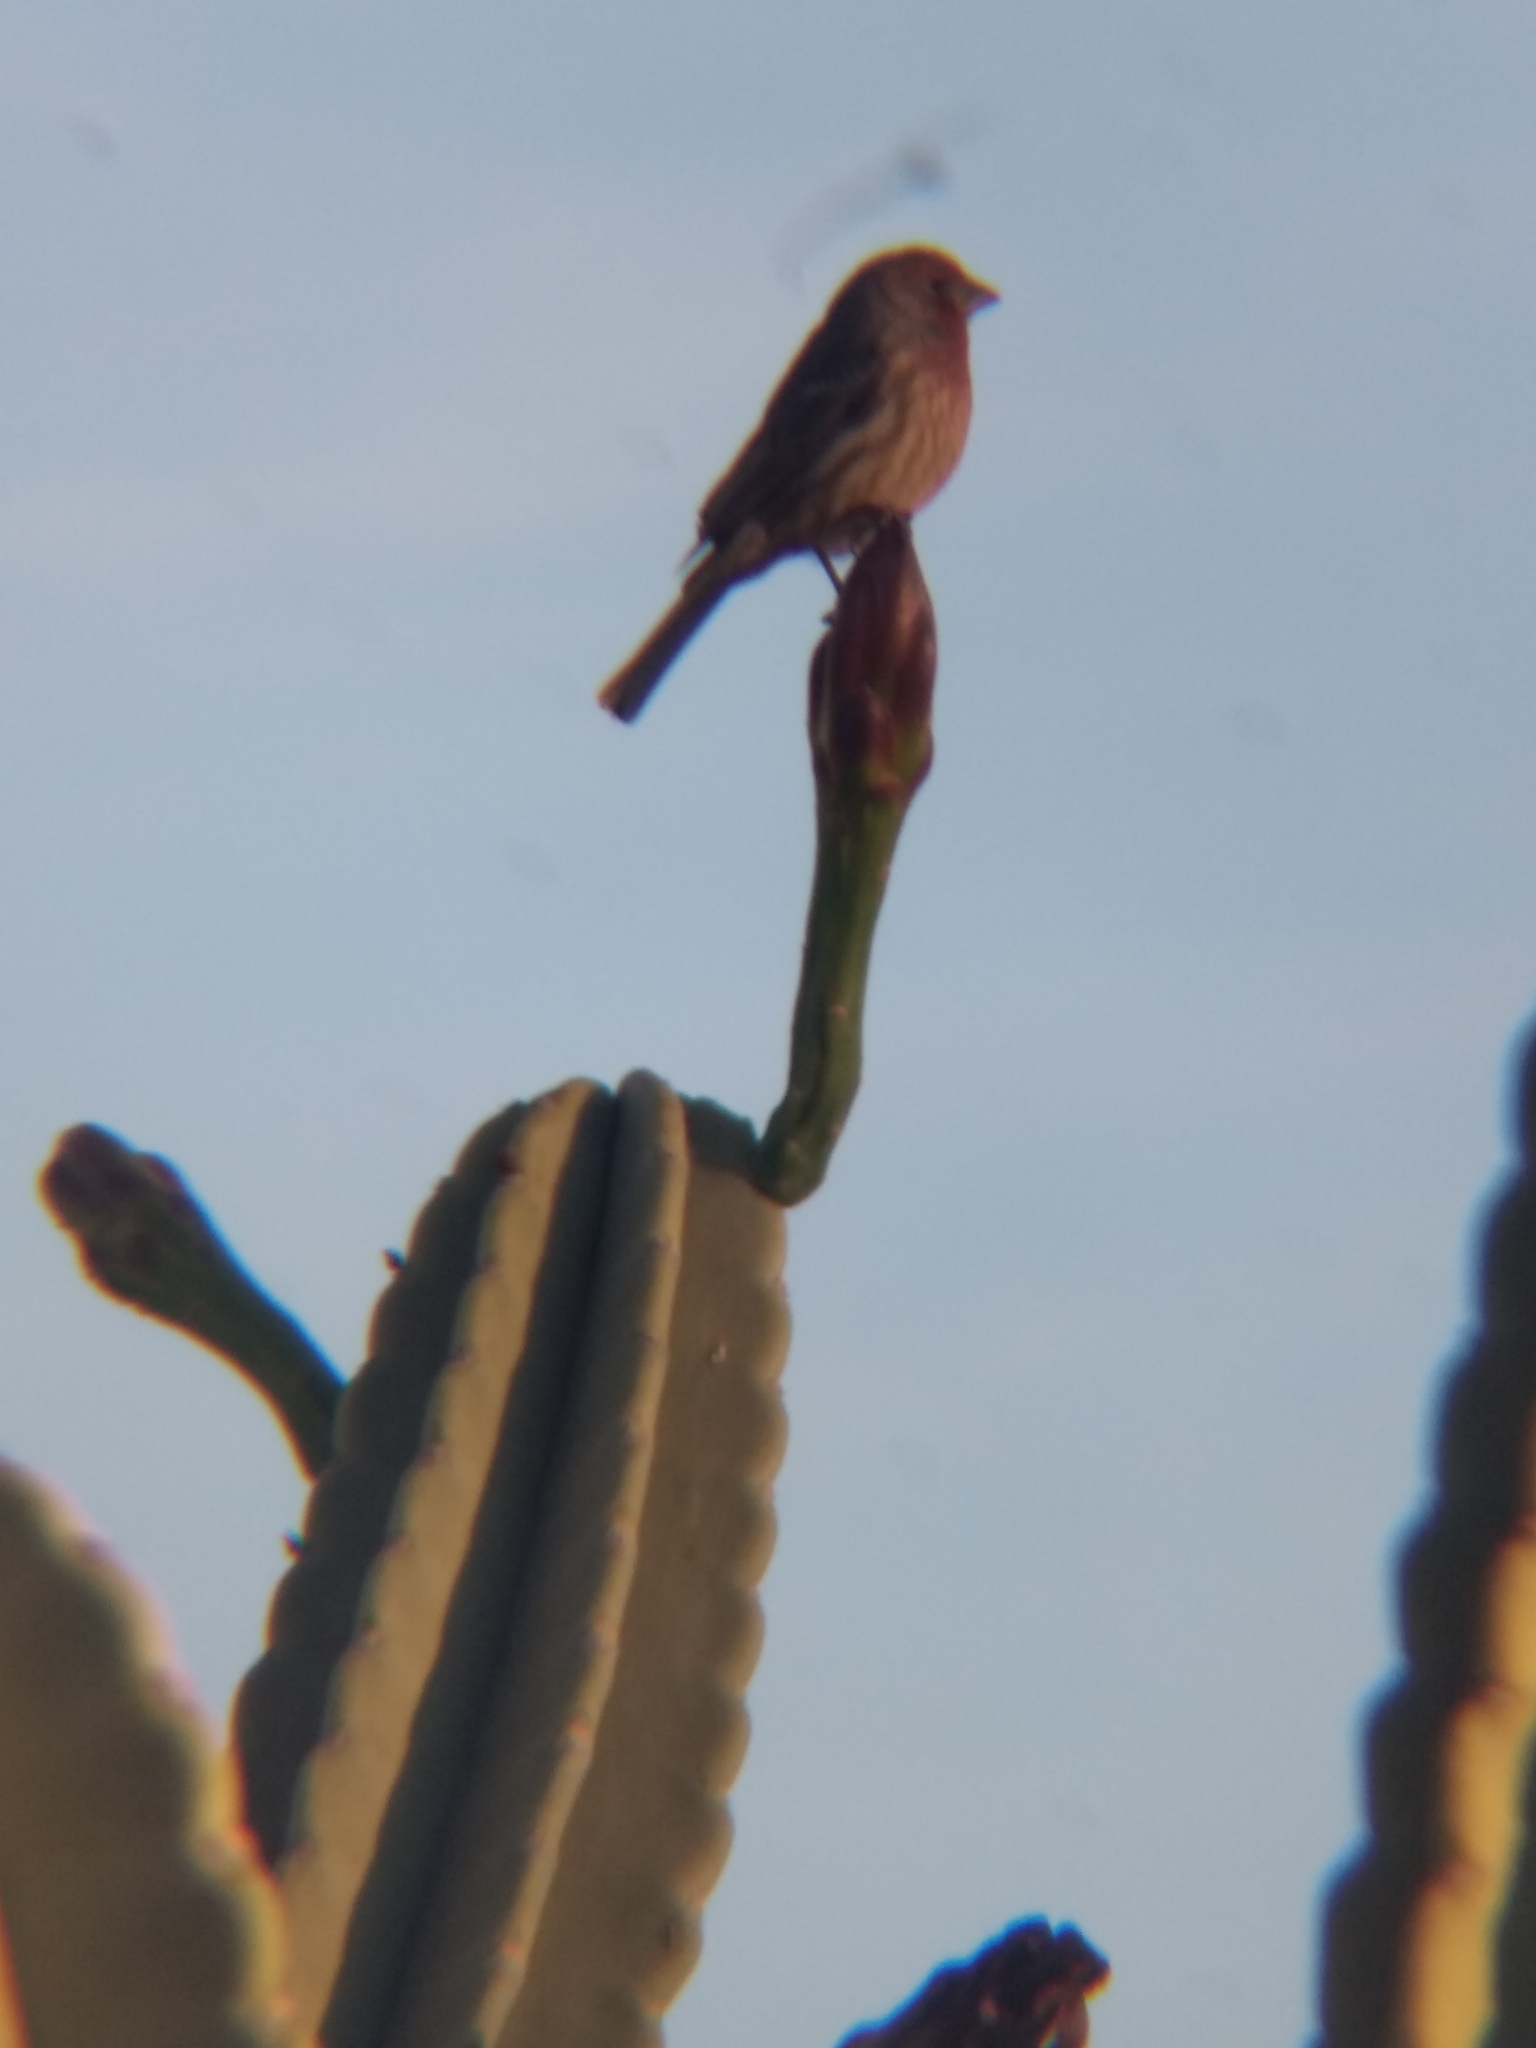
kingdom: Animalia
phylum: Chordata
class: Aves
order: Passeriformes
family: Fringillidae
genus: Haemorhous
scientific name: Haemorhous mexicanus
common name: House finch
